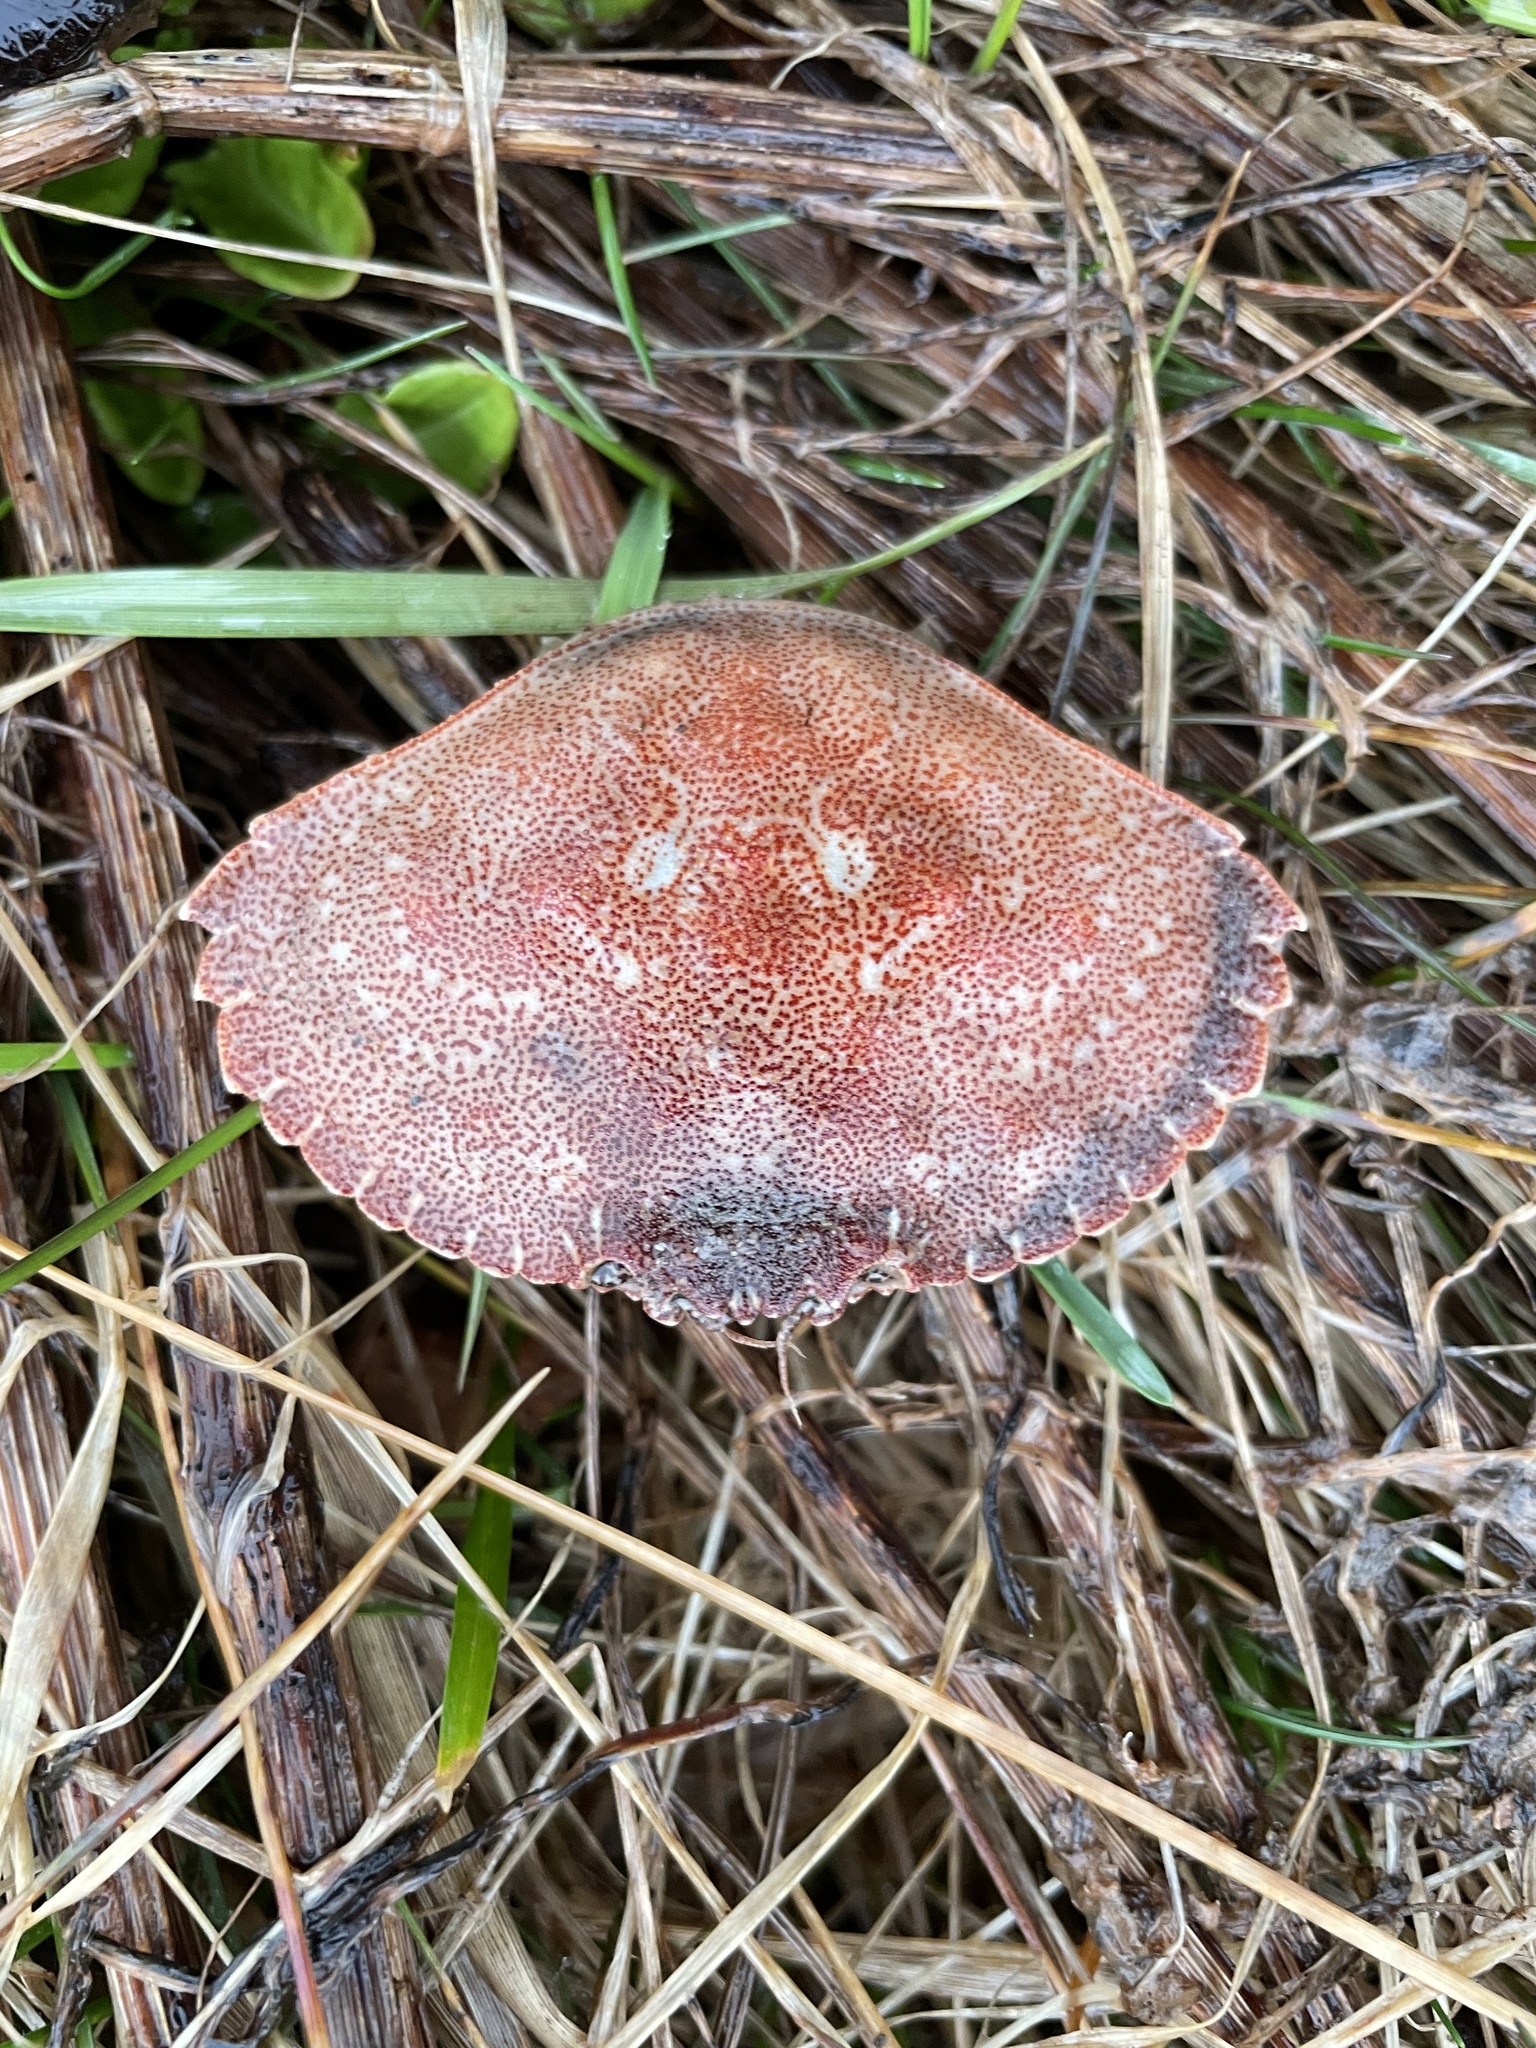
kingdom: Animalia
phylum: Arthropoda
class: Malacostraca
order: Decapoda
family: Cancridae
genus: Cancer
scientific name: Cancer irroratus
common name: Atlantic rock crab
